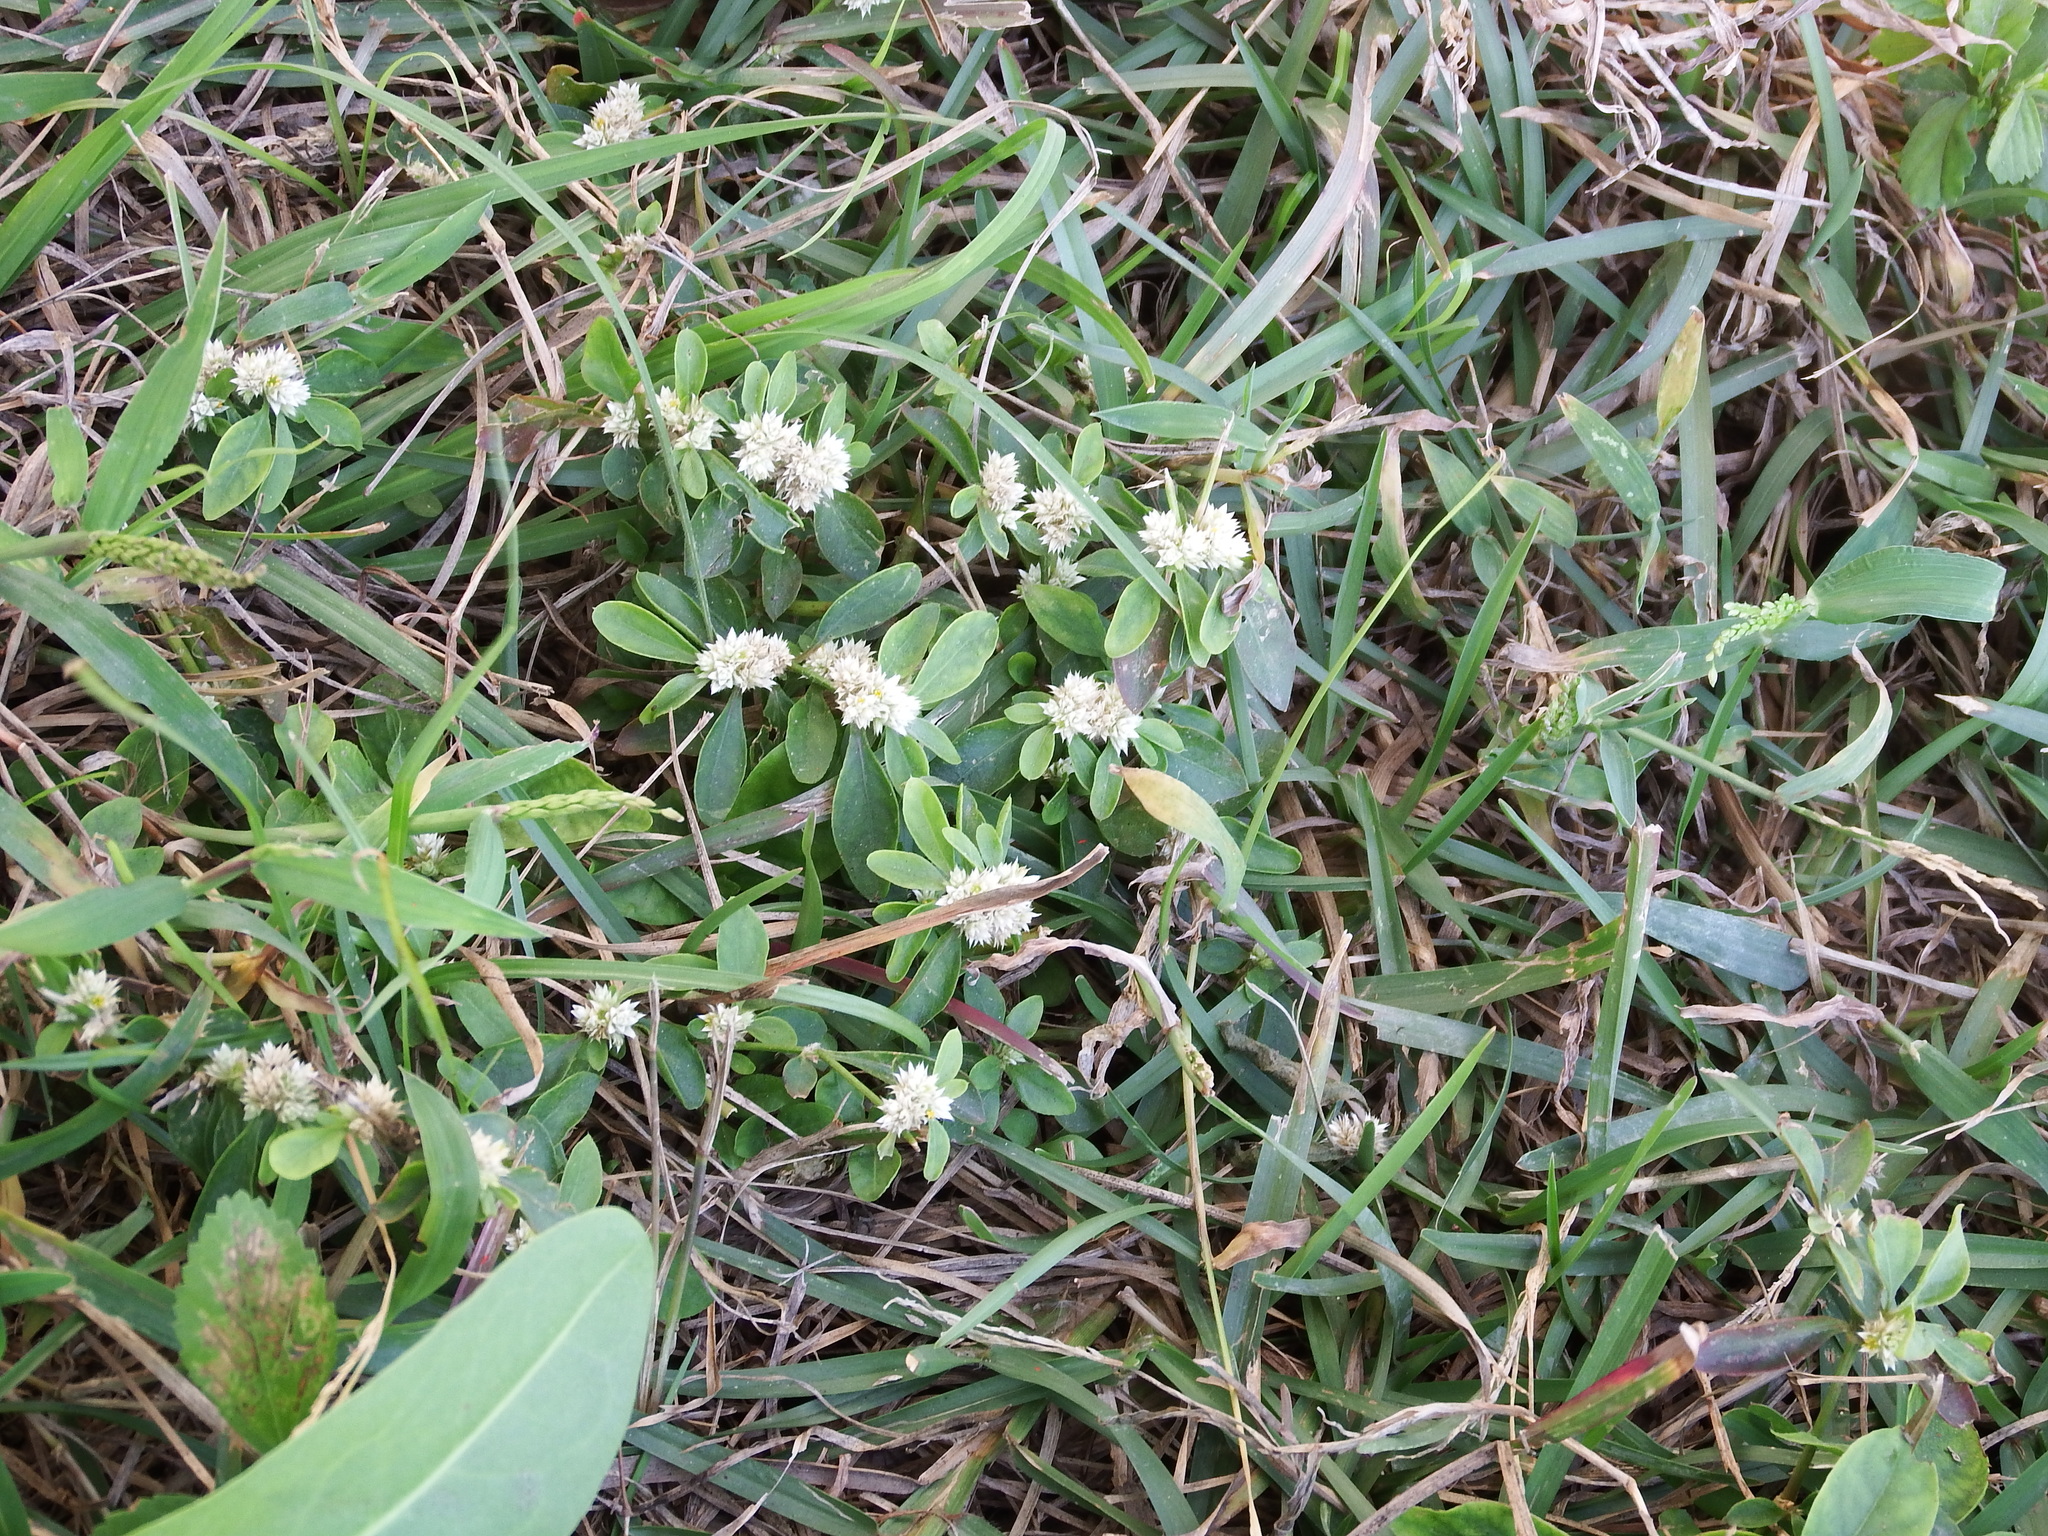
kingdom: Plantae
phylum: Tracheophyta
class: Magnoliopsida
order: Caryophyllales
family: Amaranthaceae
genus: Alternanthera
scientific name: Alternanthera bettzickiana
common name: Calico-plant
